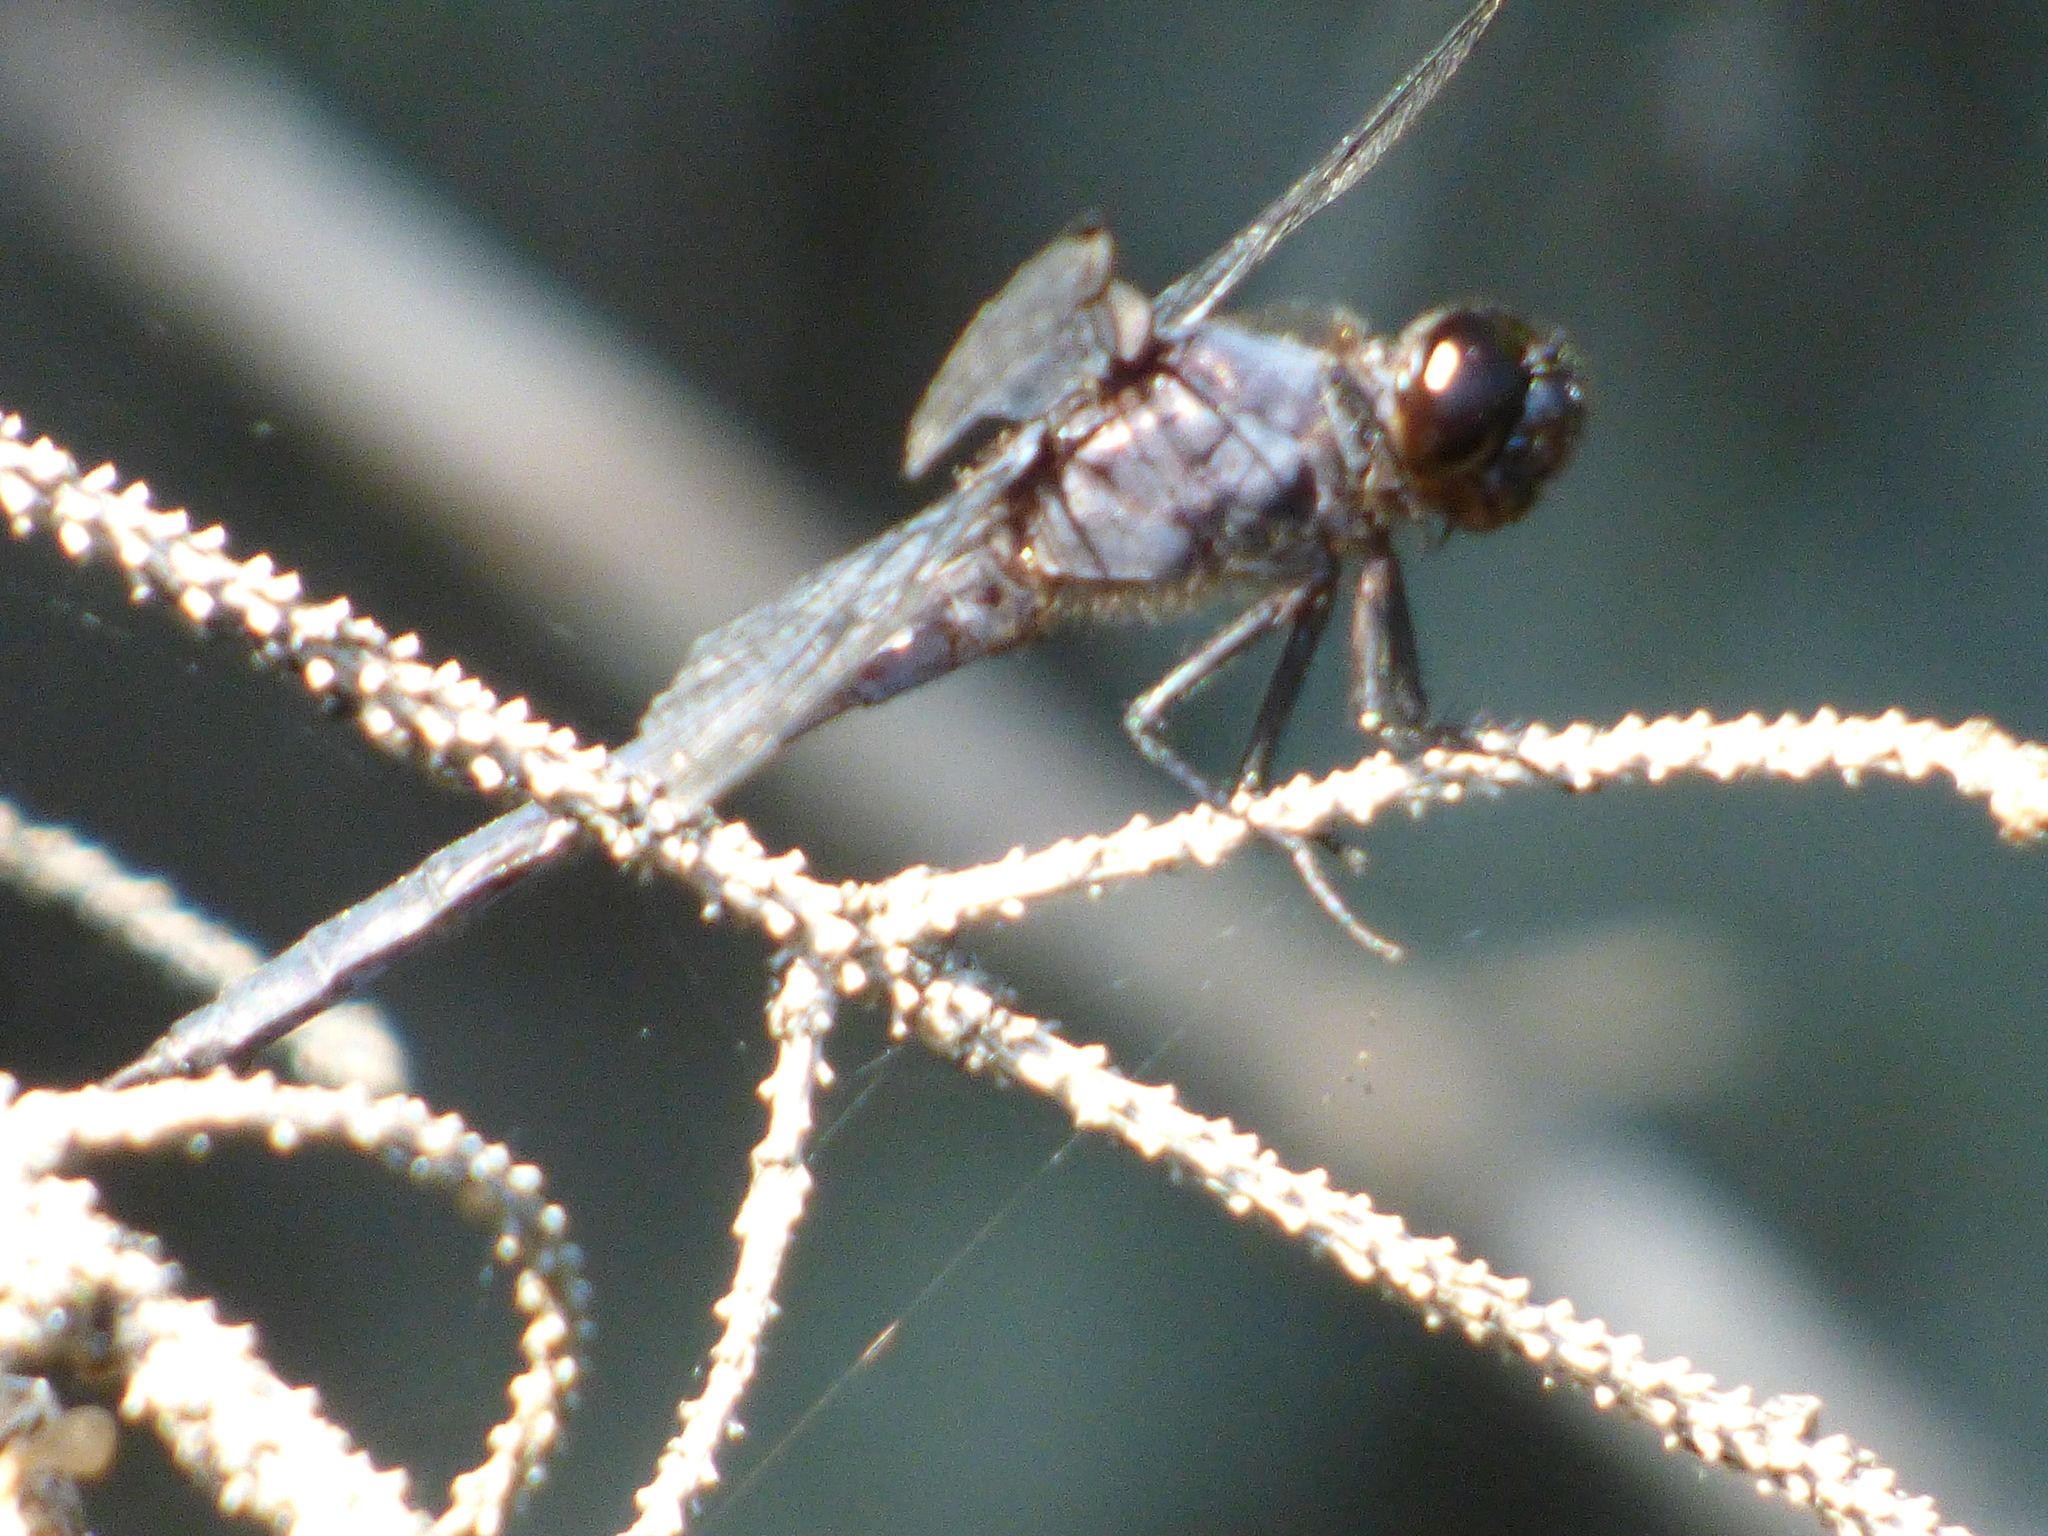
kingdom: Animalia
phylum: Arthropoda
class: Insecta
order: Odonata
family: Libellulidae
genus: Libellula
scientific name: Libellula incesta
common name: Slaty skimmer
